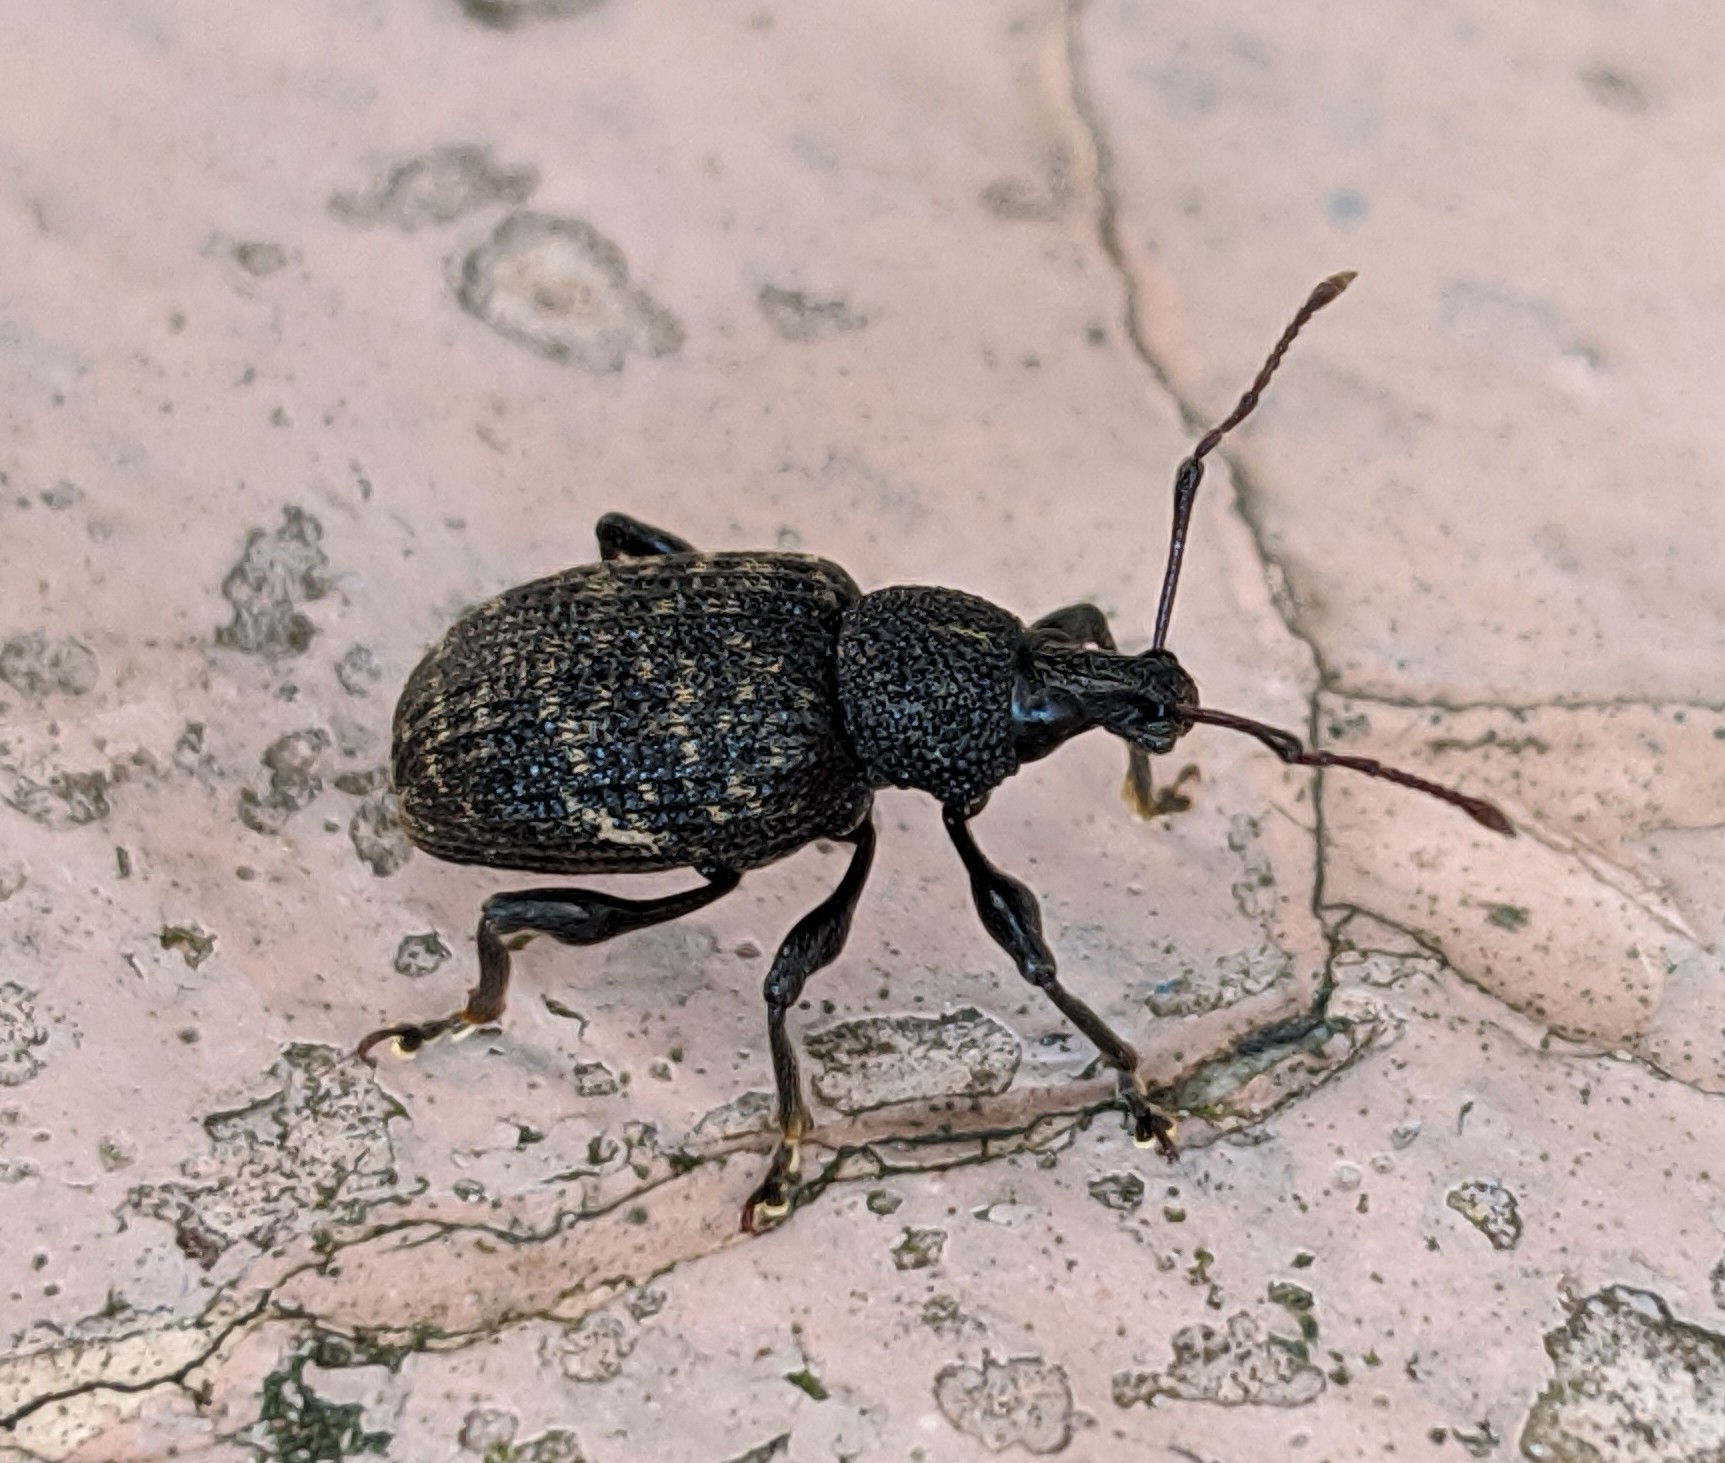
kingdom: Animalia
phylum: Arthropoda
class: Insecta
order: Coleoptera
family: Curculionidae
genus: Otiorhynchus
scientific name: Otiorhynchus sulcatus
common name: Black vine weevil
